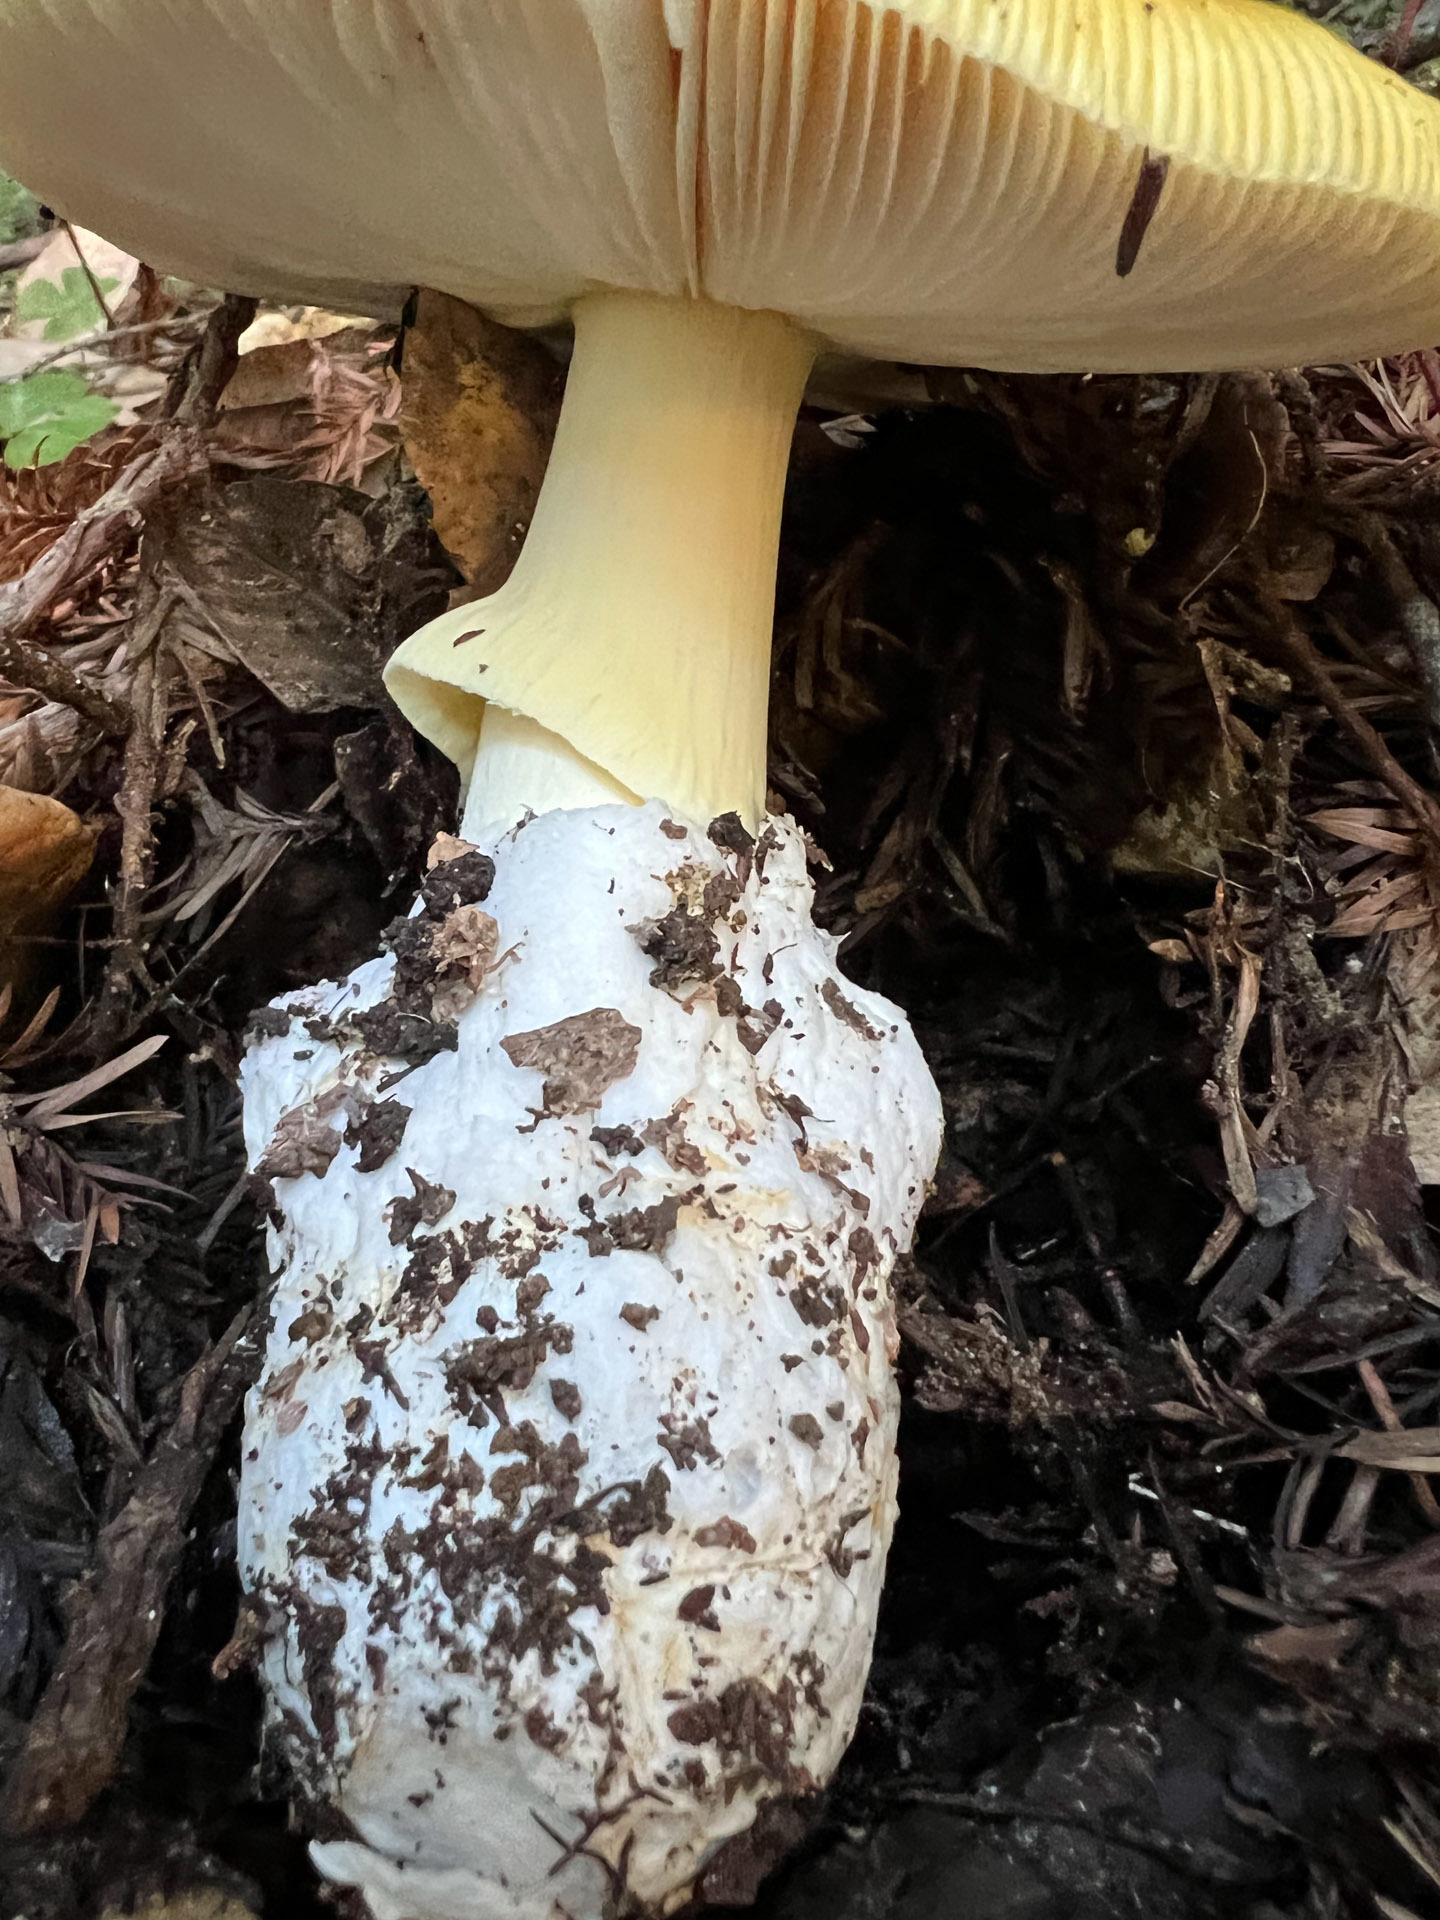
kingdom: Fungi
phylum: Basidiomycota
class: Agaricomycetes
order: Agaricales
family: Amanitaceae
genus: Amanita
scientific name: Amanita calyptroderma
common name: Coccora
